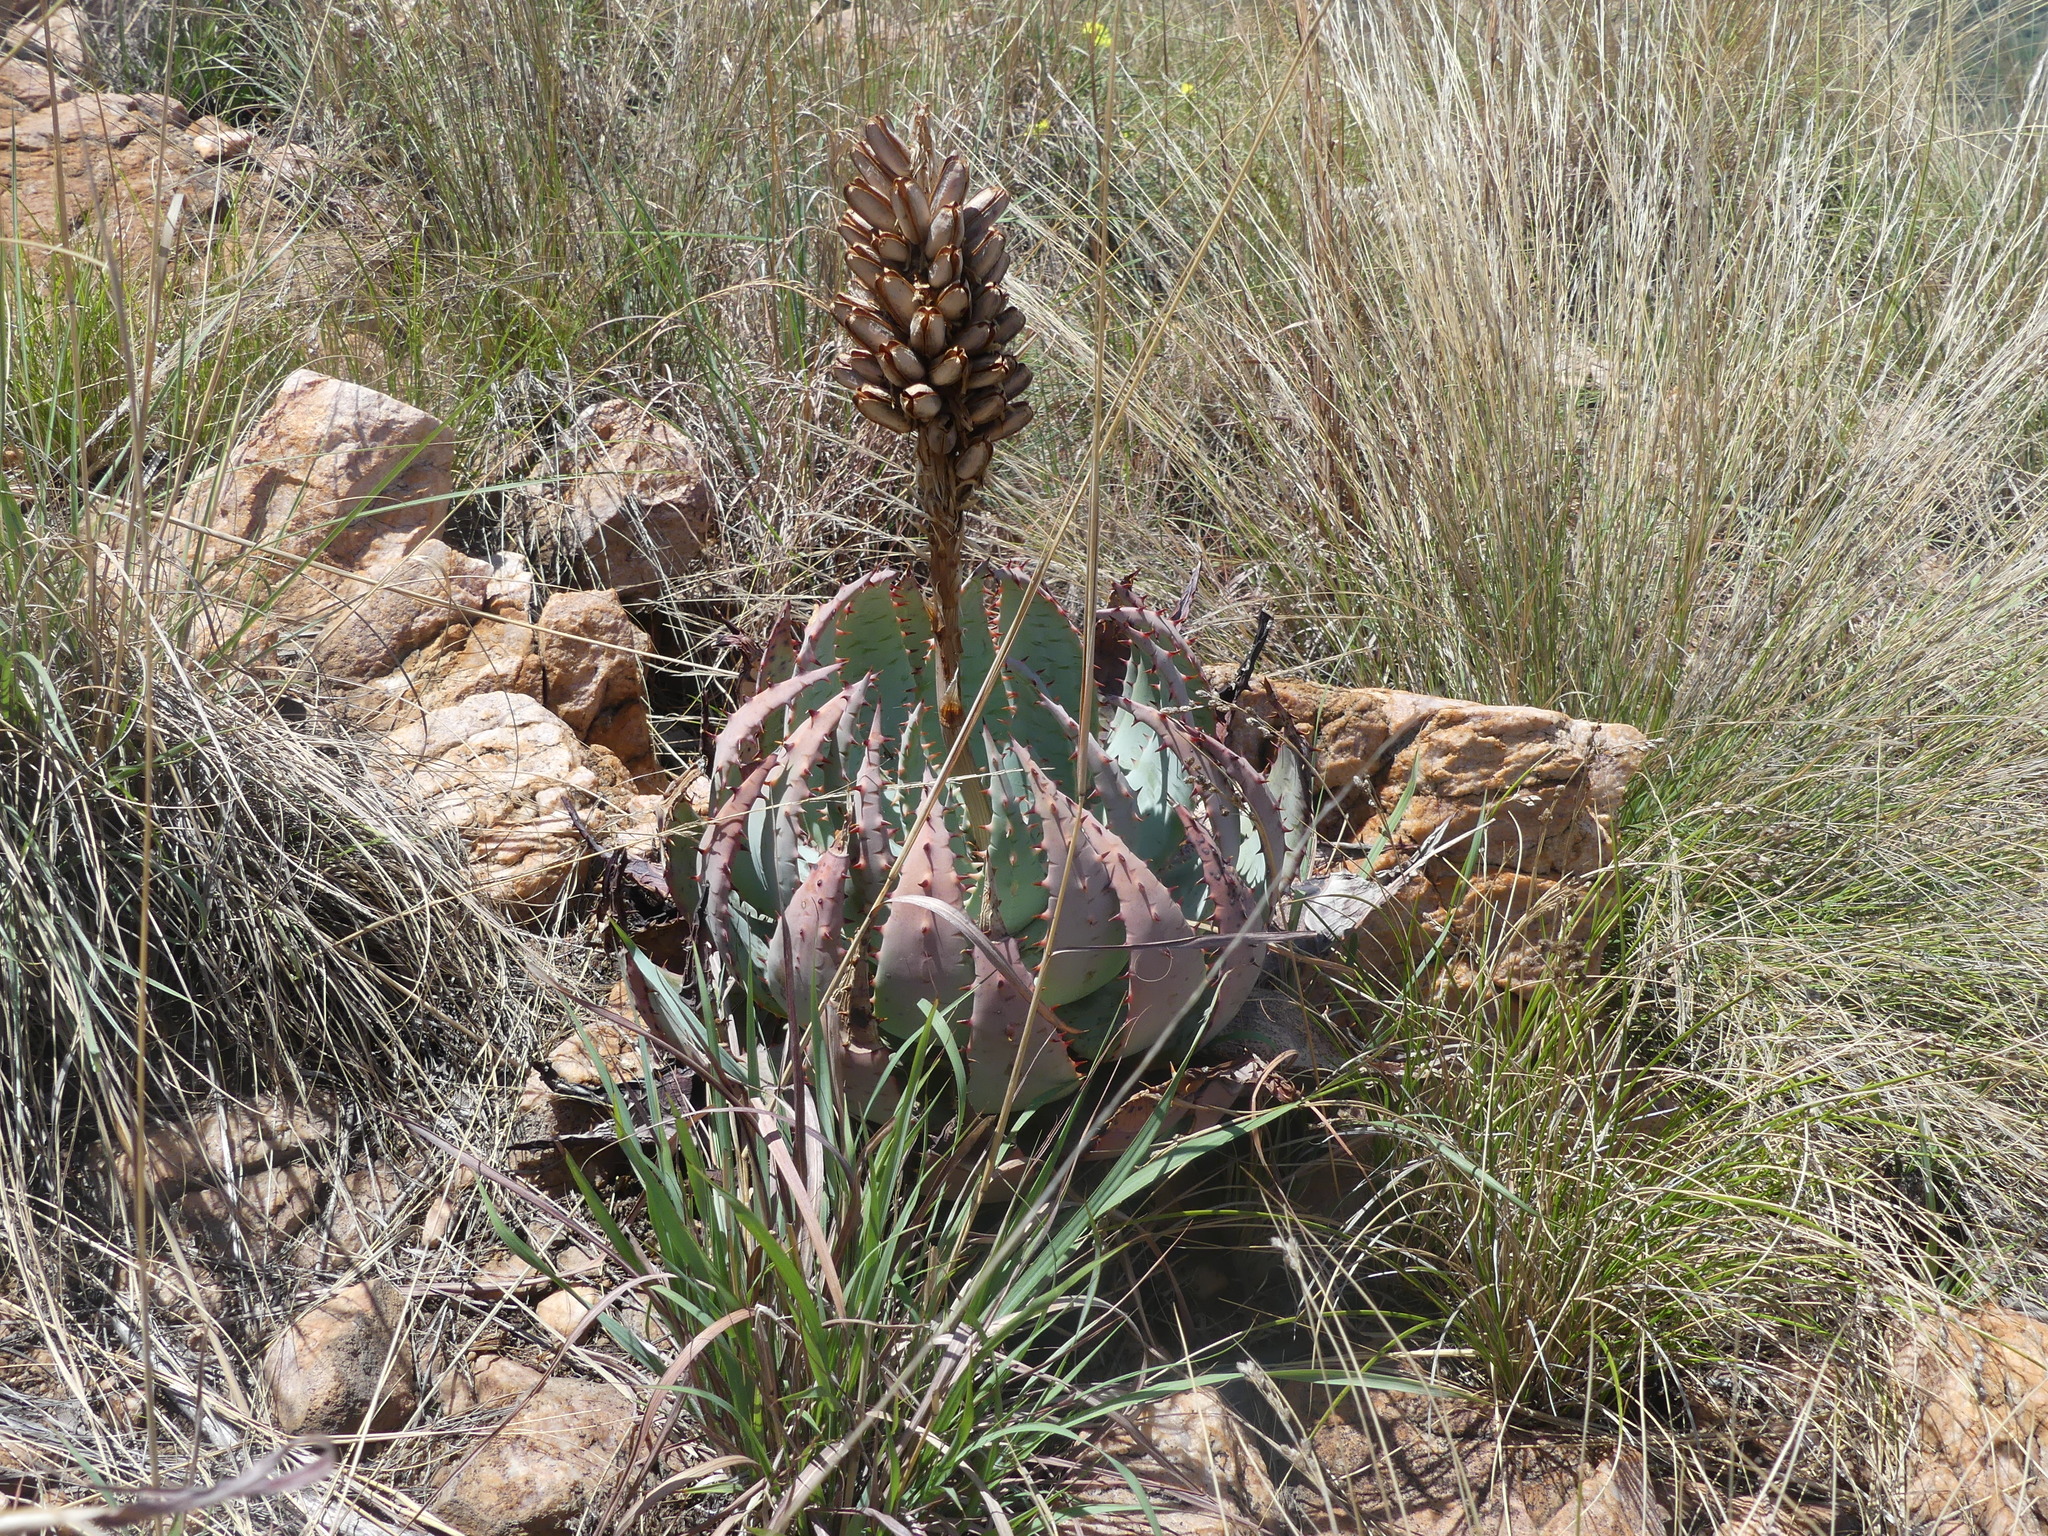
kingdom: Plantae
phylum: Tracheophyta
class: Liliopsida
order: Asparagales
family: Asphodelaceae
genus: Aloe
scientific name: Aloe peglerae
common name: Red-hot poker
